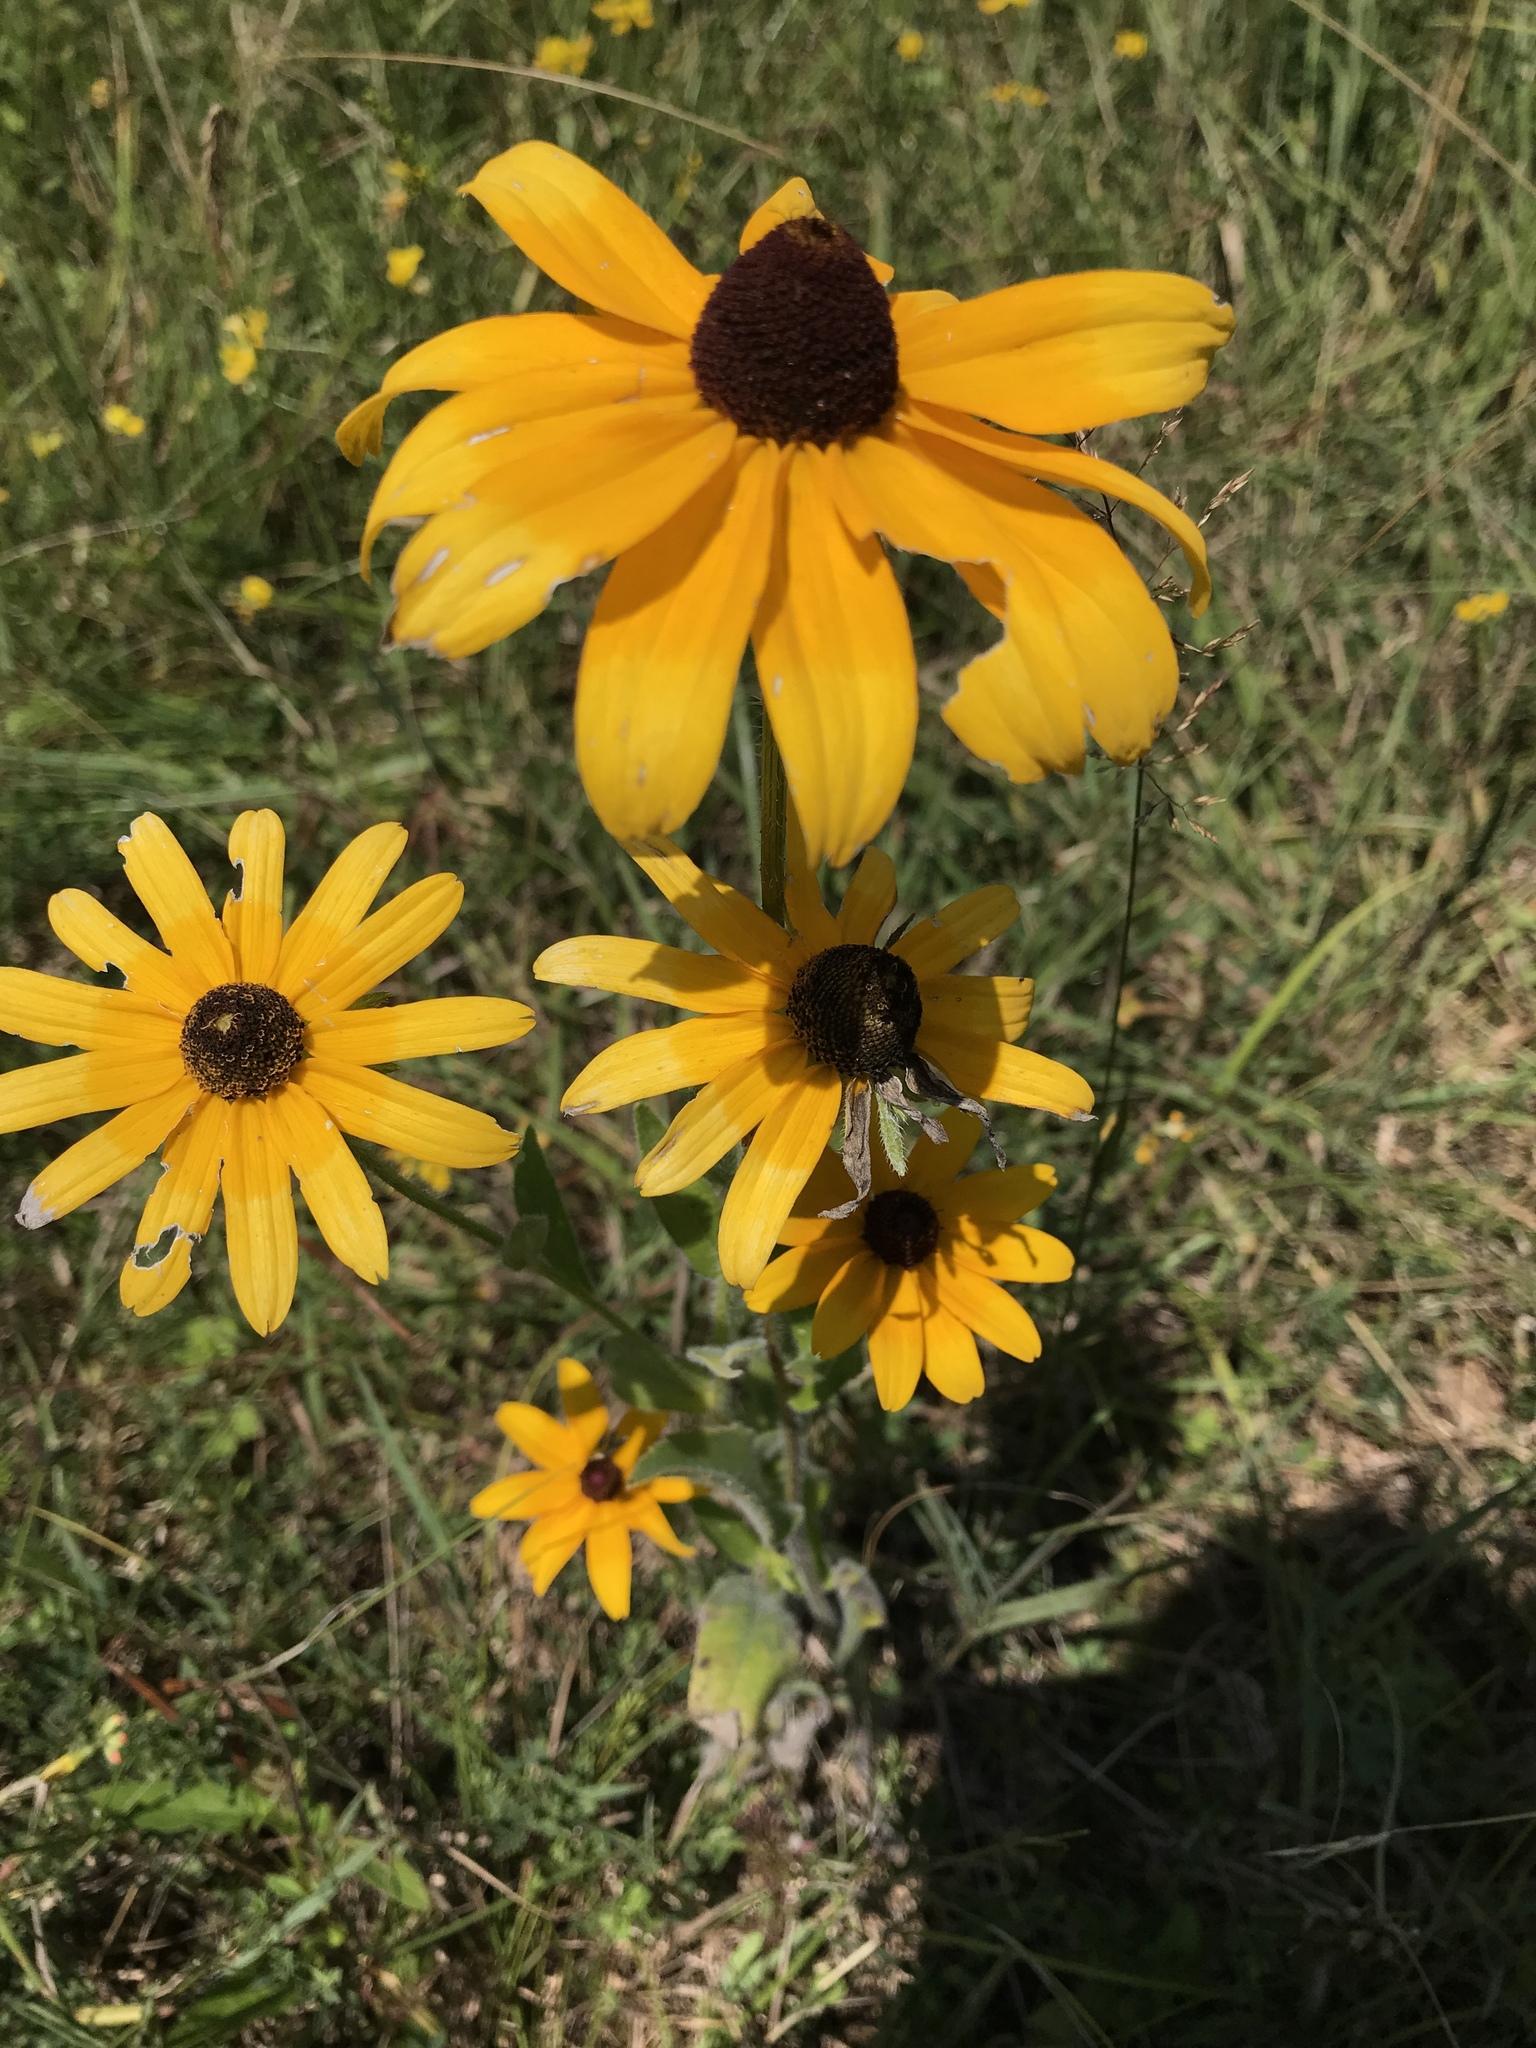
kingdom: Plantae
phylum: Tracheophyta
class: Magnoliopsida
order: Asterales
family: Asteraceae
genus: Rudbeckia
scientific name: Rudbeckia hirta
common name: Black-eyed-susan
